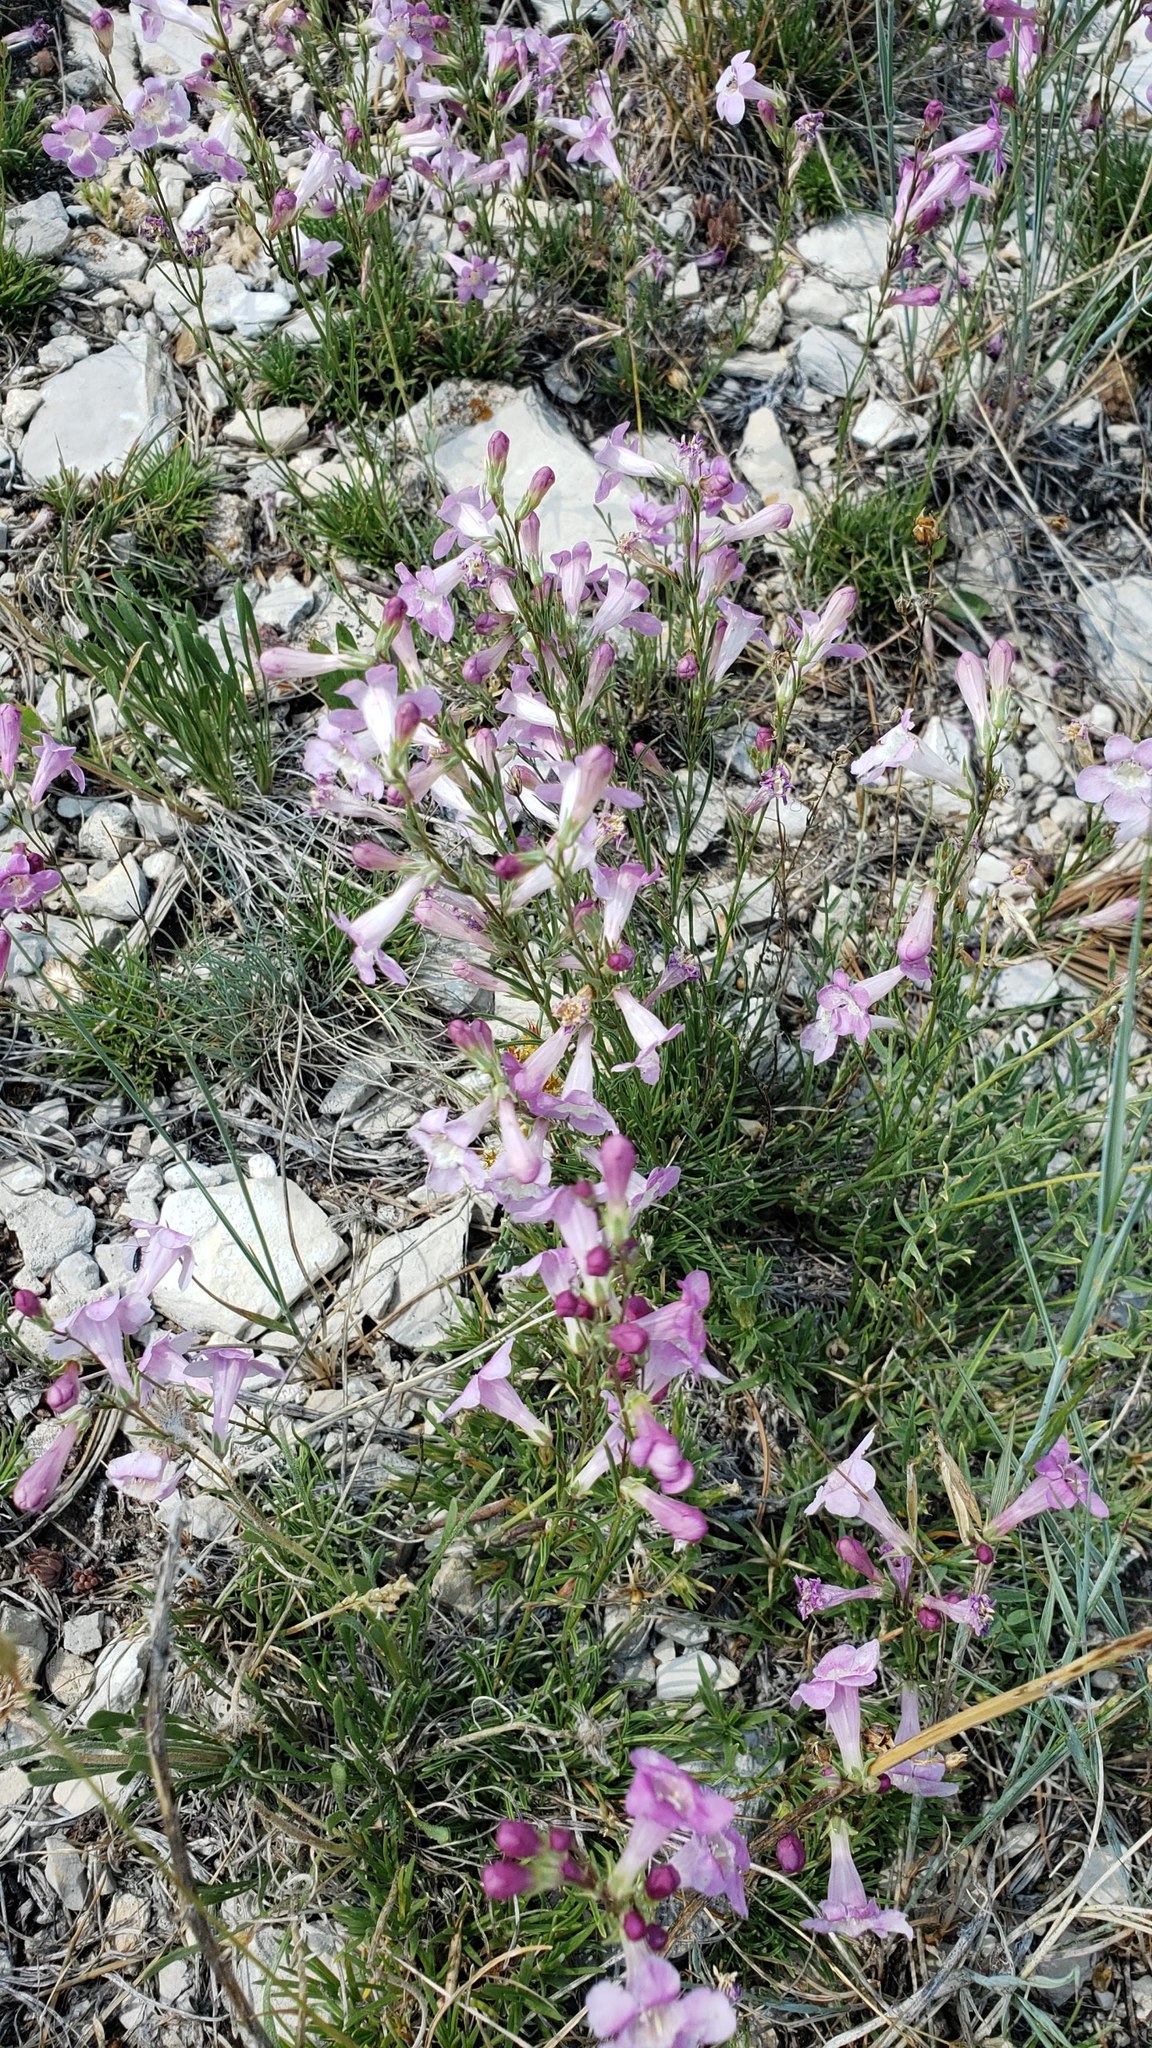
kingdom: Plantae
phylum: Tracheophyta
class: Magnoliopsida
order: Lamiales
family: Plantaginaceae
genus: Penstemon
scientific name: Penstemon laricifolius
